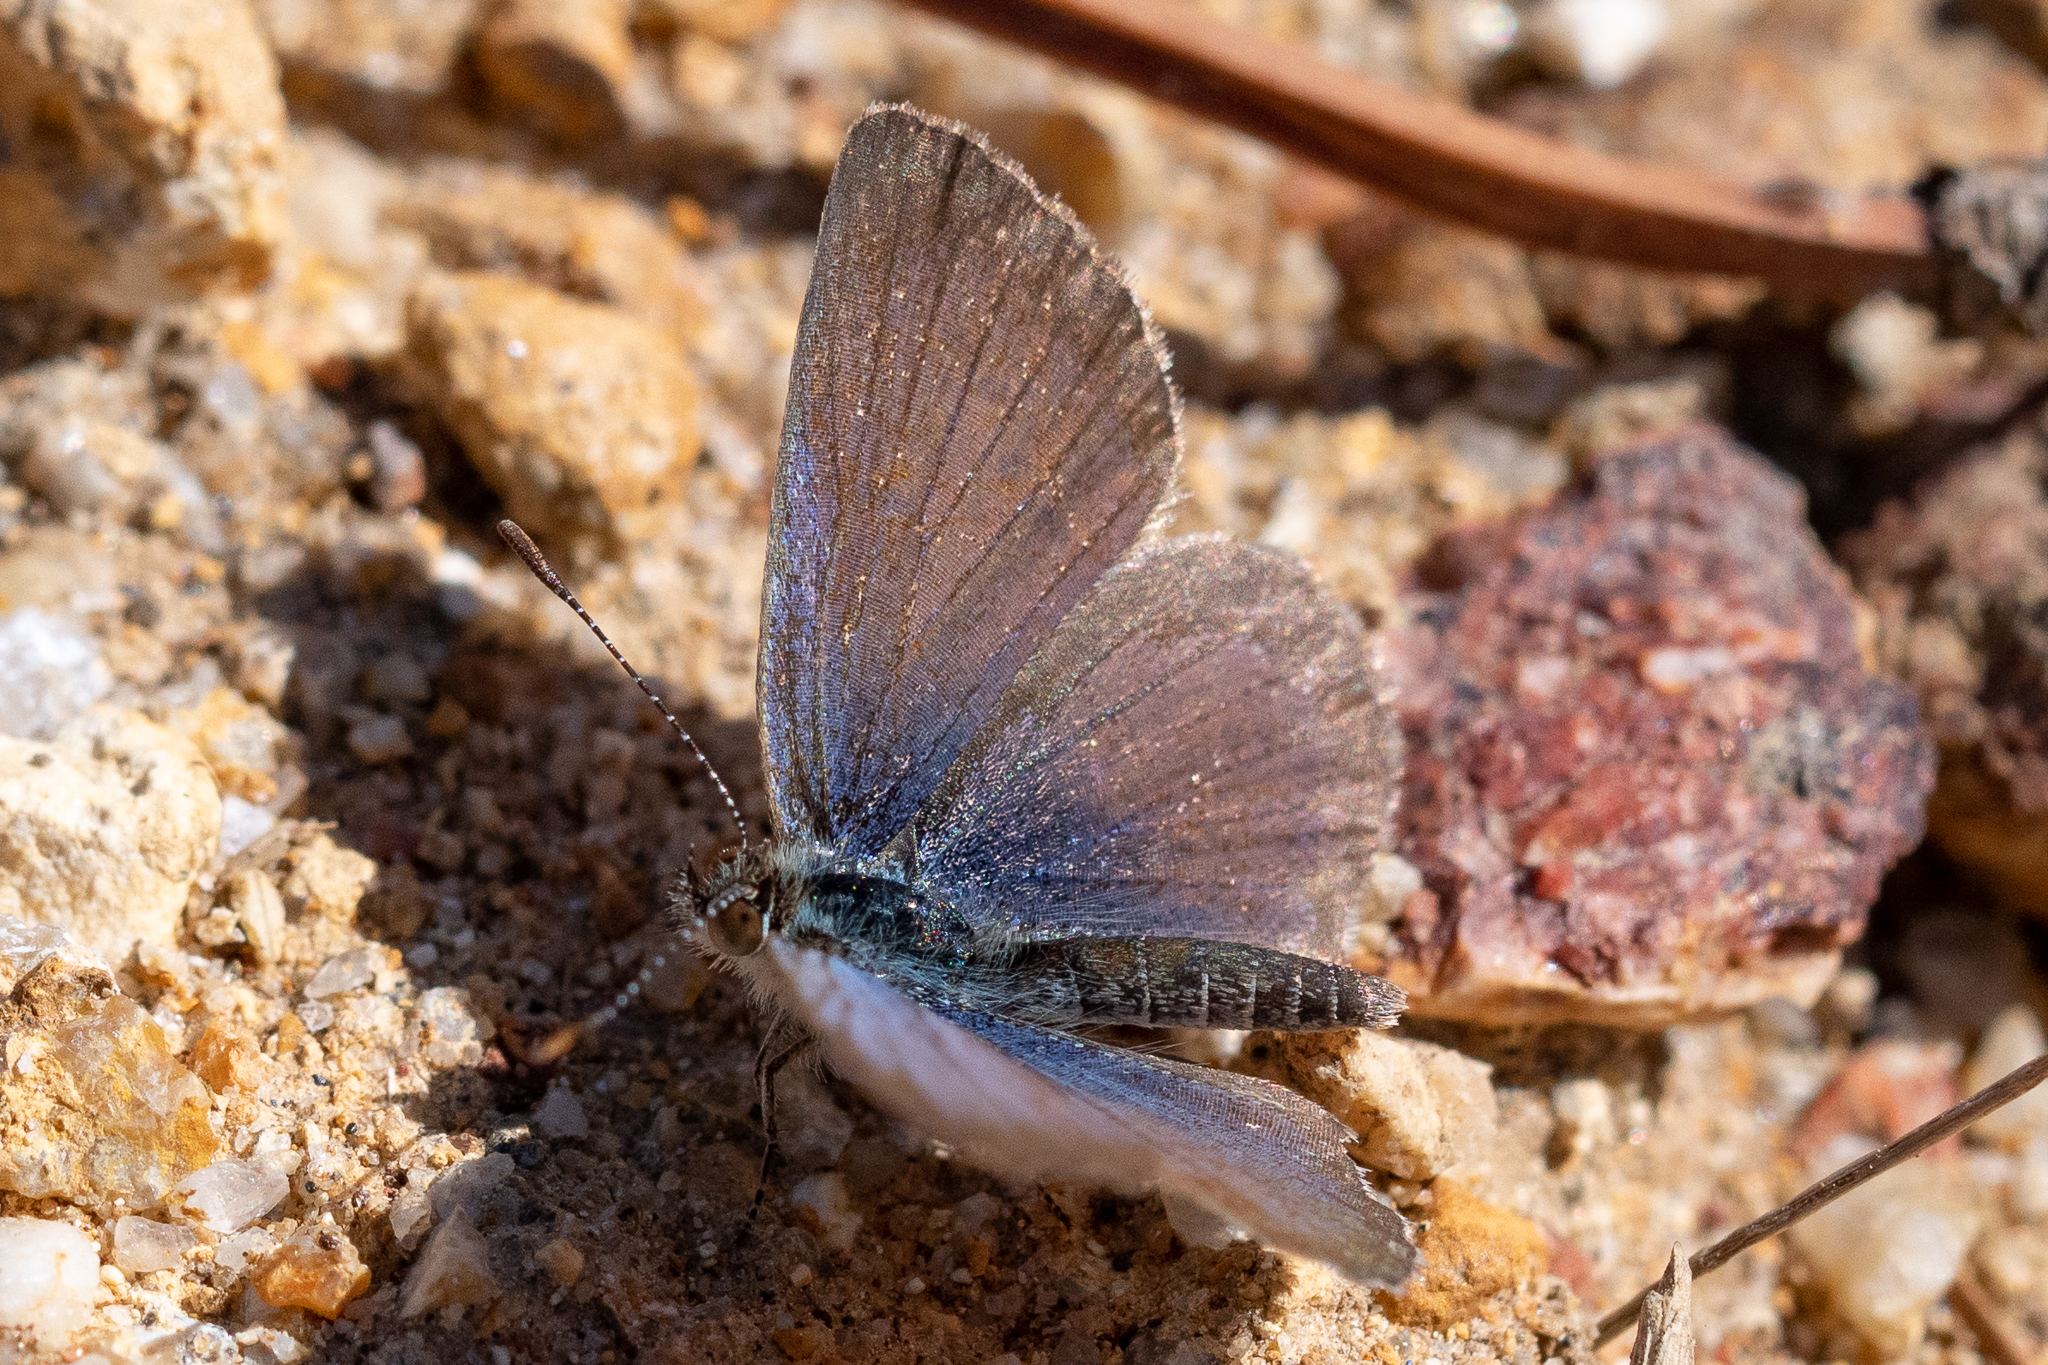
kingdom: Animalia
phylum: Arthropoda
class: Insecta
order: Lepidoptera
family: Lycaenidae
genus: Zizeeria
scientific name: Zizeeria knysna
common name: African grass blue
